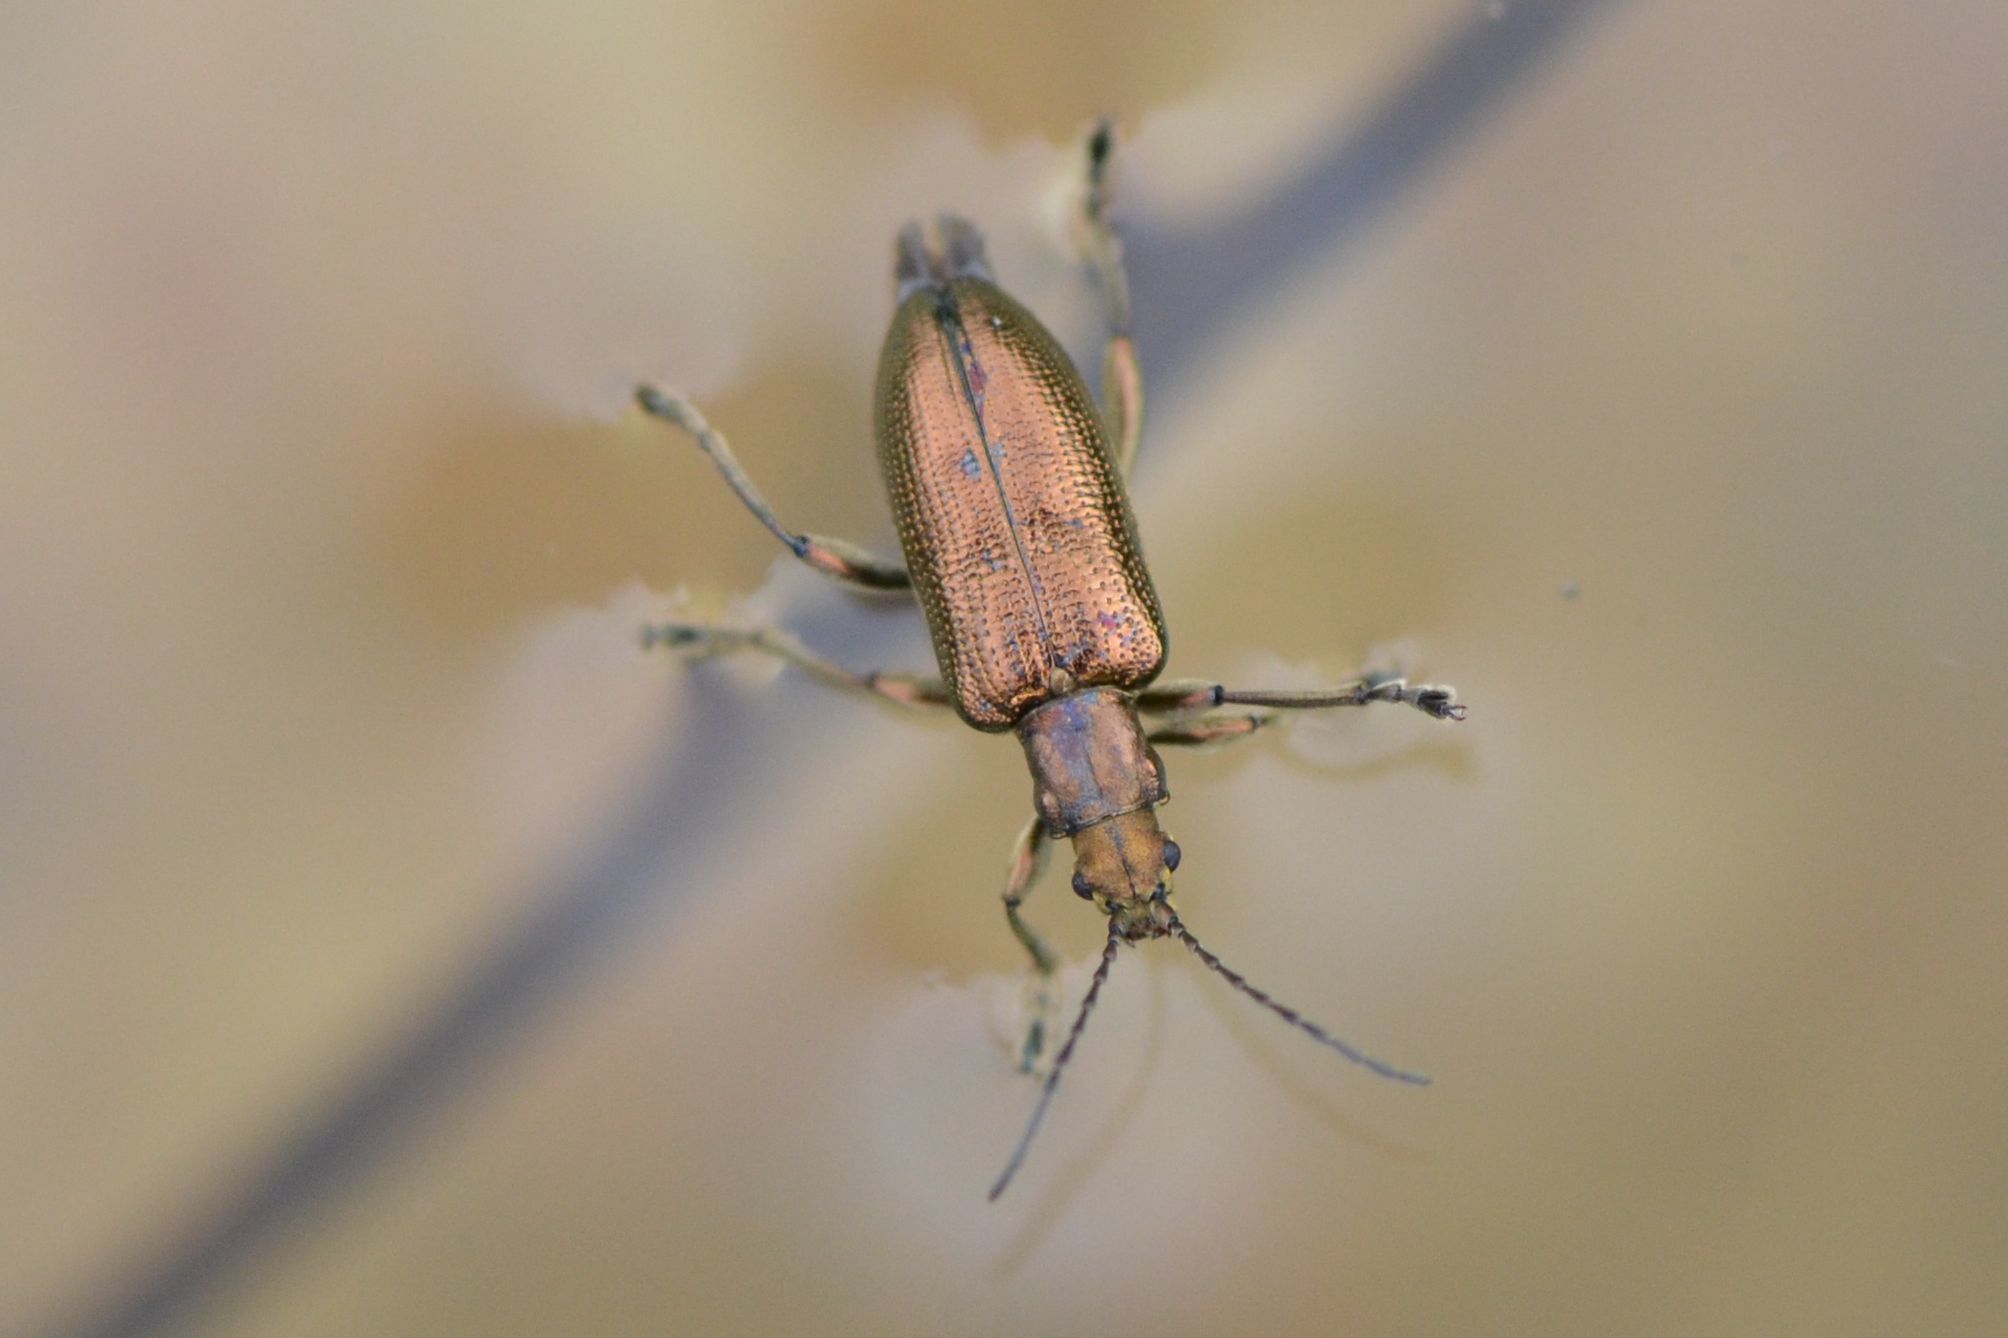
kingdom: Animalia
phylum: Arthropoda
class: Insecta
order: Coleoptera
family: Chrysomelidae
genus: Plateumaris
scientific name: Plateumaris sericea
